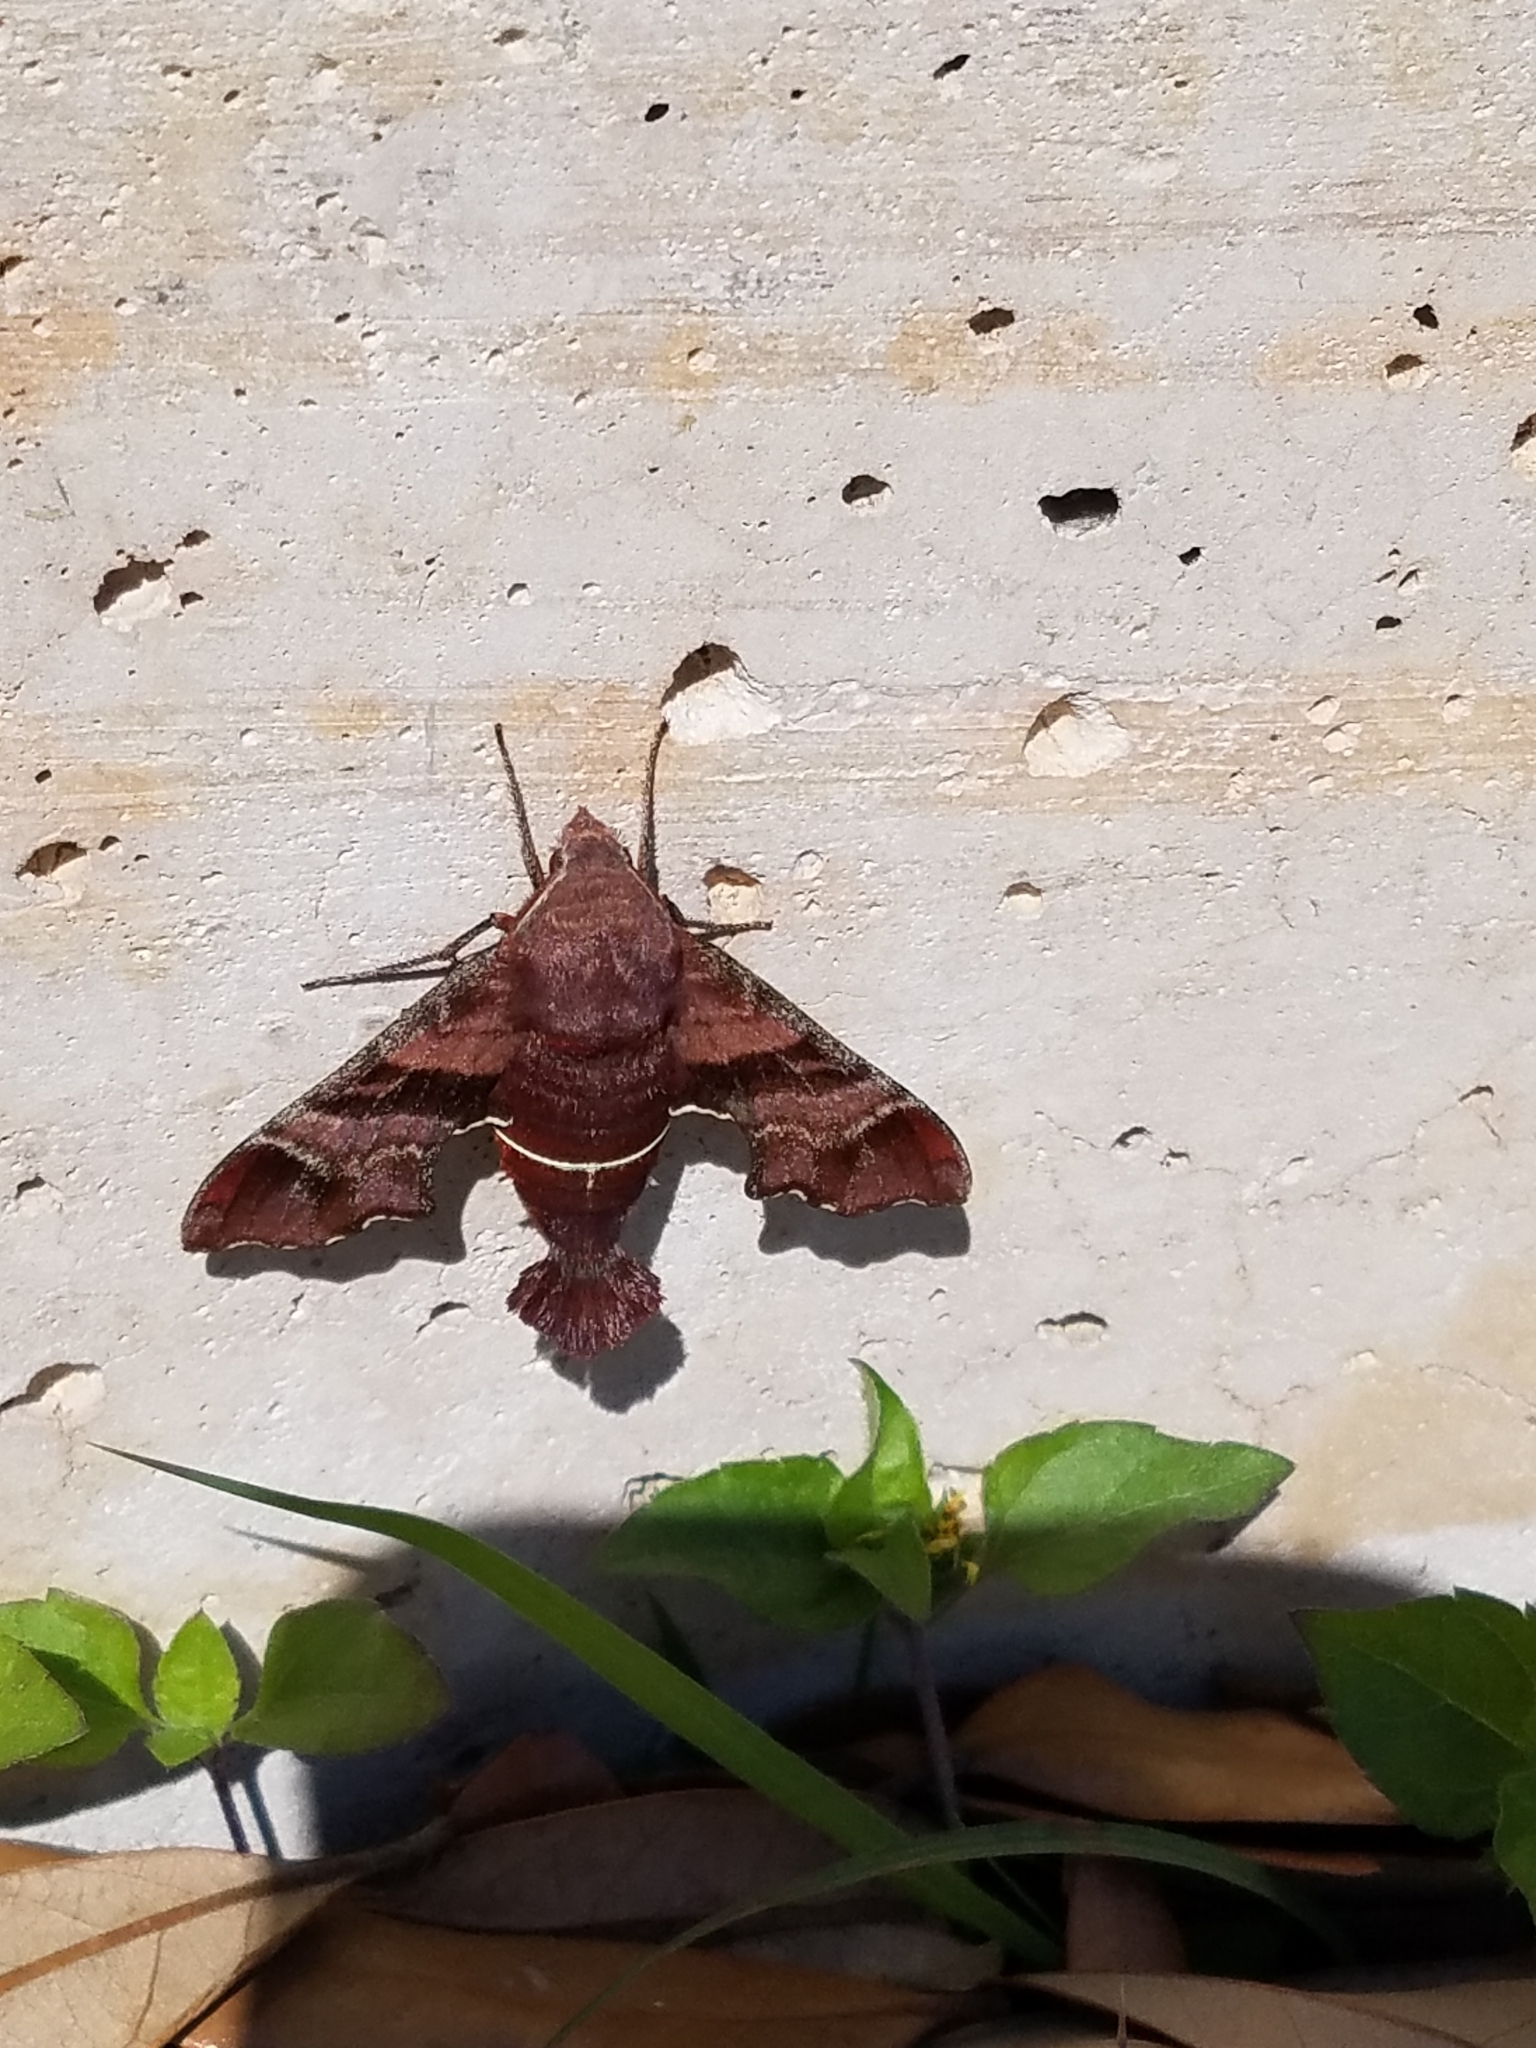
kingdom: Animalia
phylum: Arthropoda
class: Insecta
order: Lepidoptera
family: Sphingidae
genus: Amphion
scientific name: Amphion floridensis
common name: Nessus sphinx
